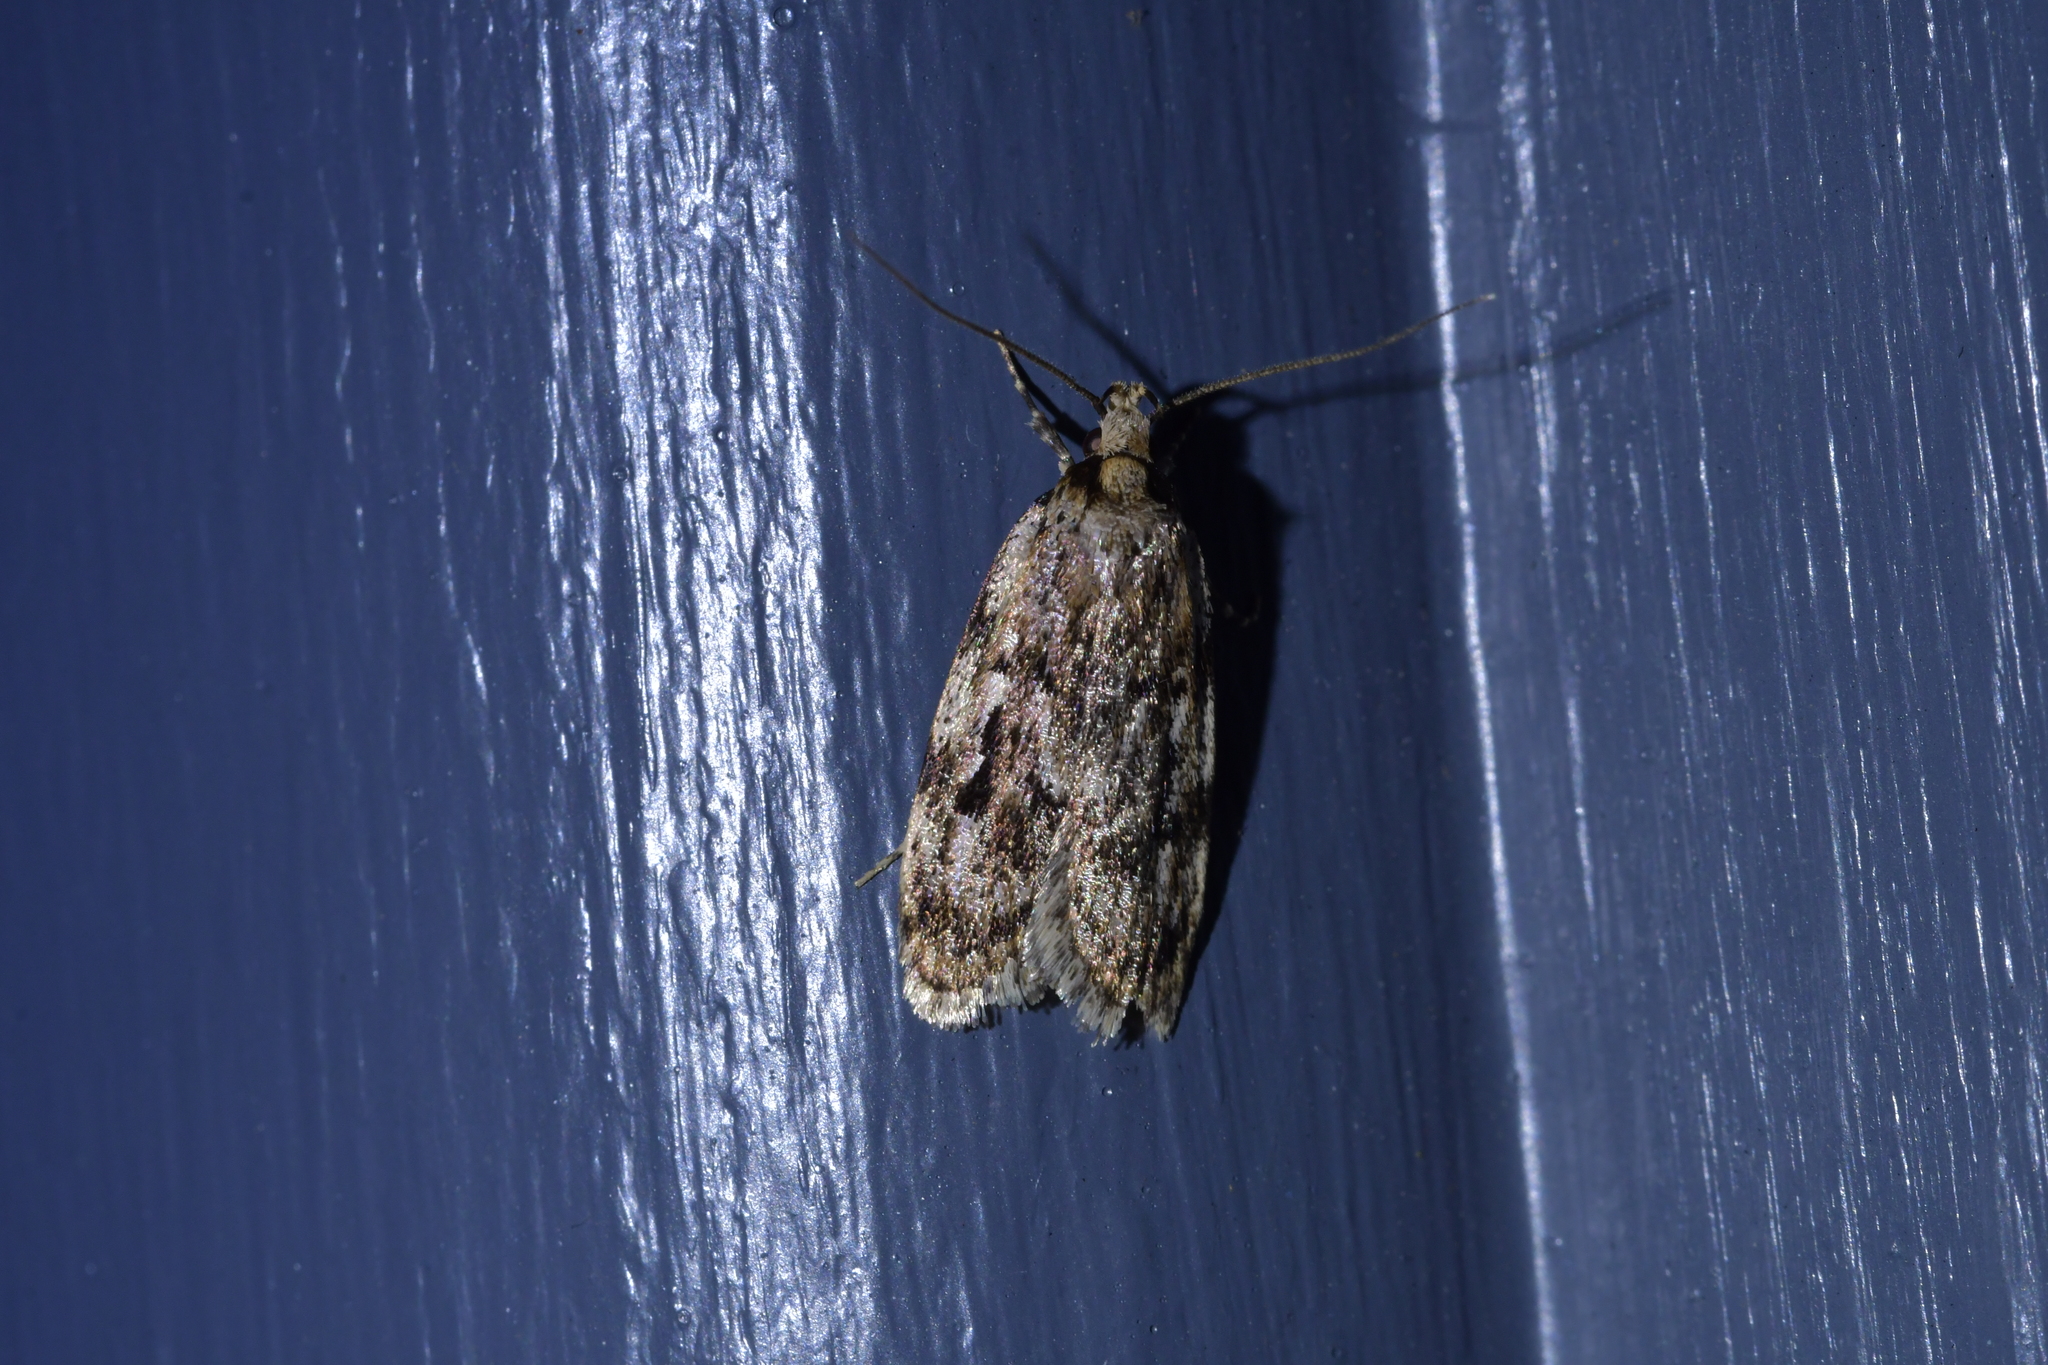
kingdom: Animalia
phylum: Arthropoda
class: Insecta
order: Lepidoptera
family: Oecophoridae
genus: Barea
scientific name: Barea exarcha
